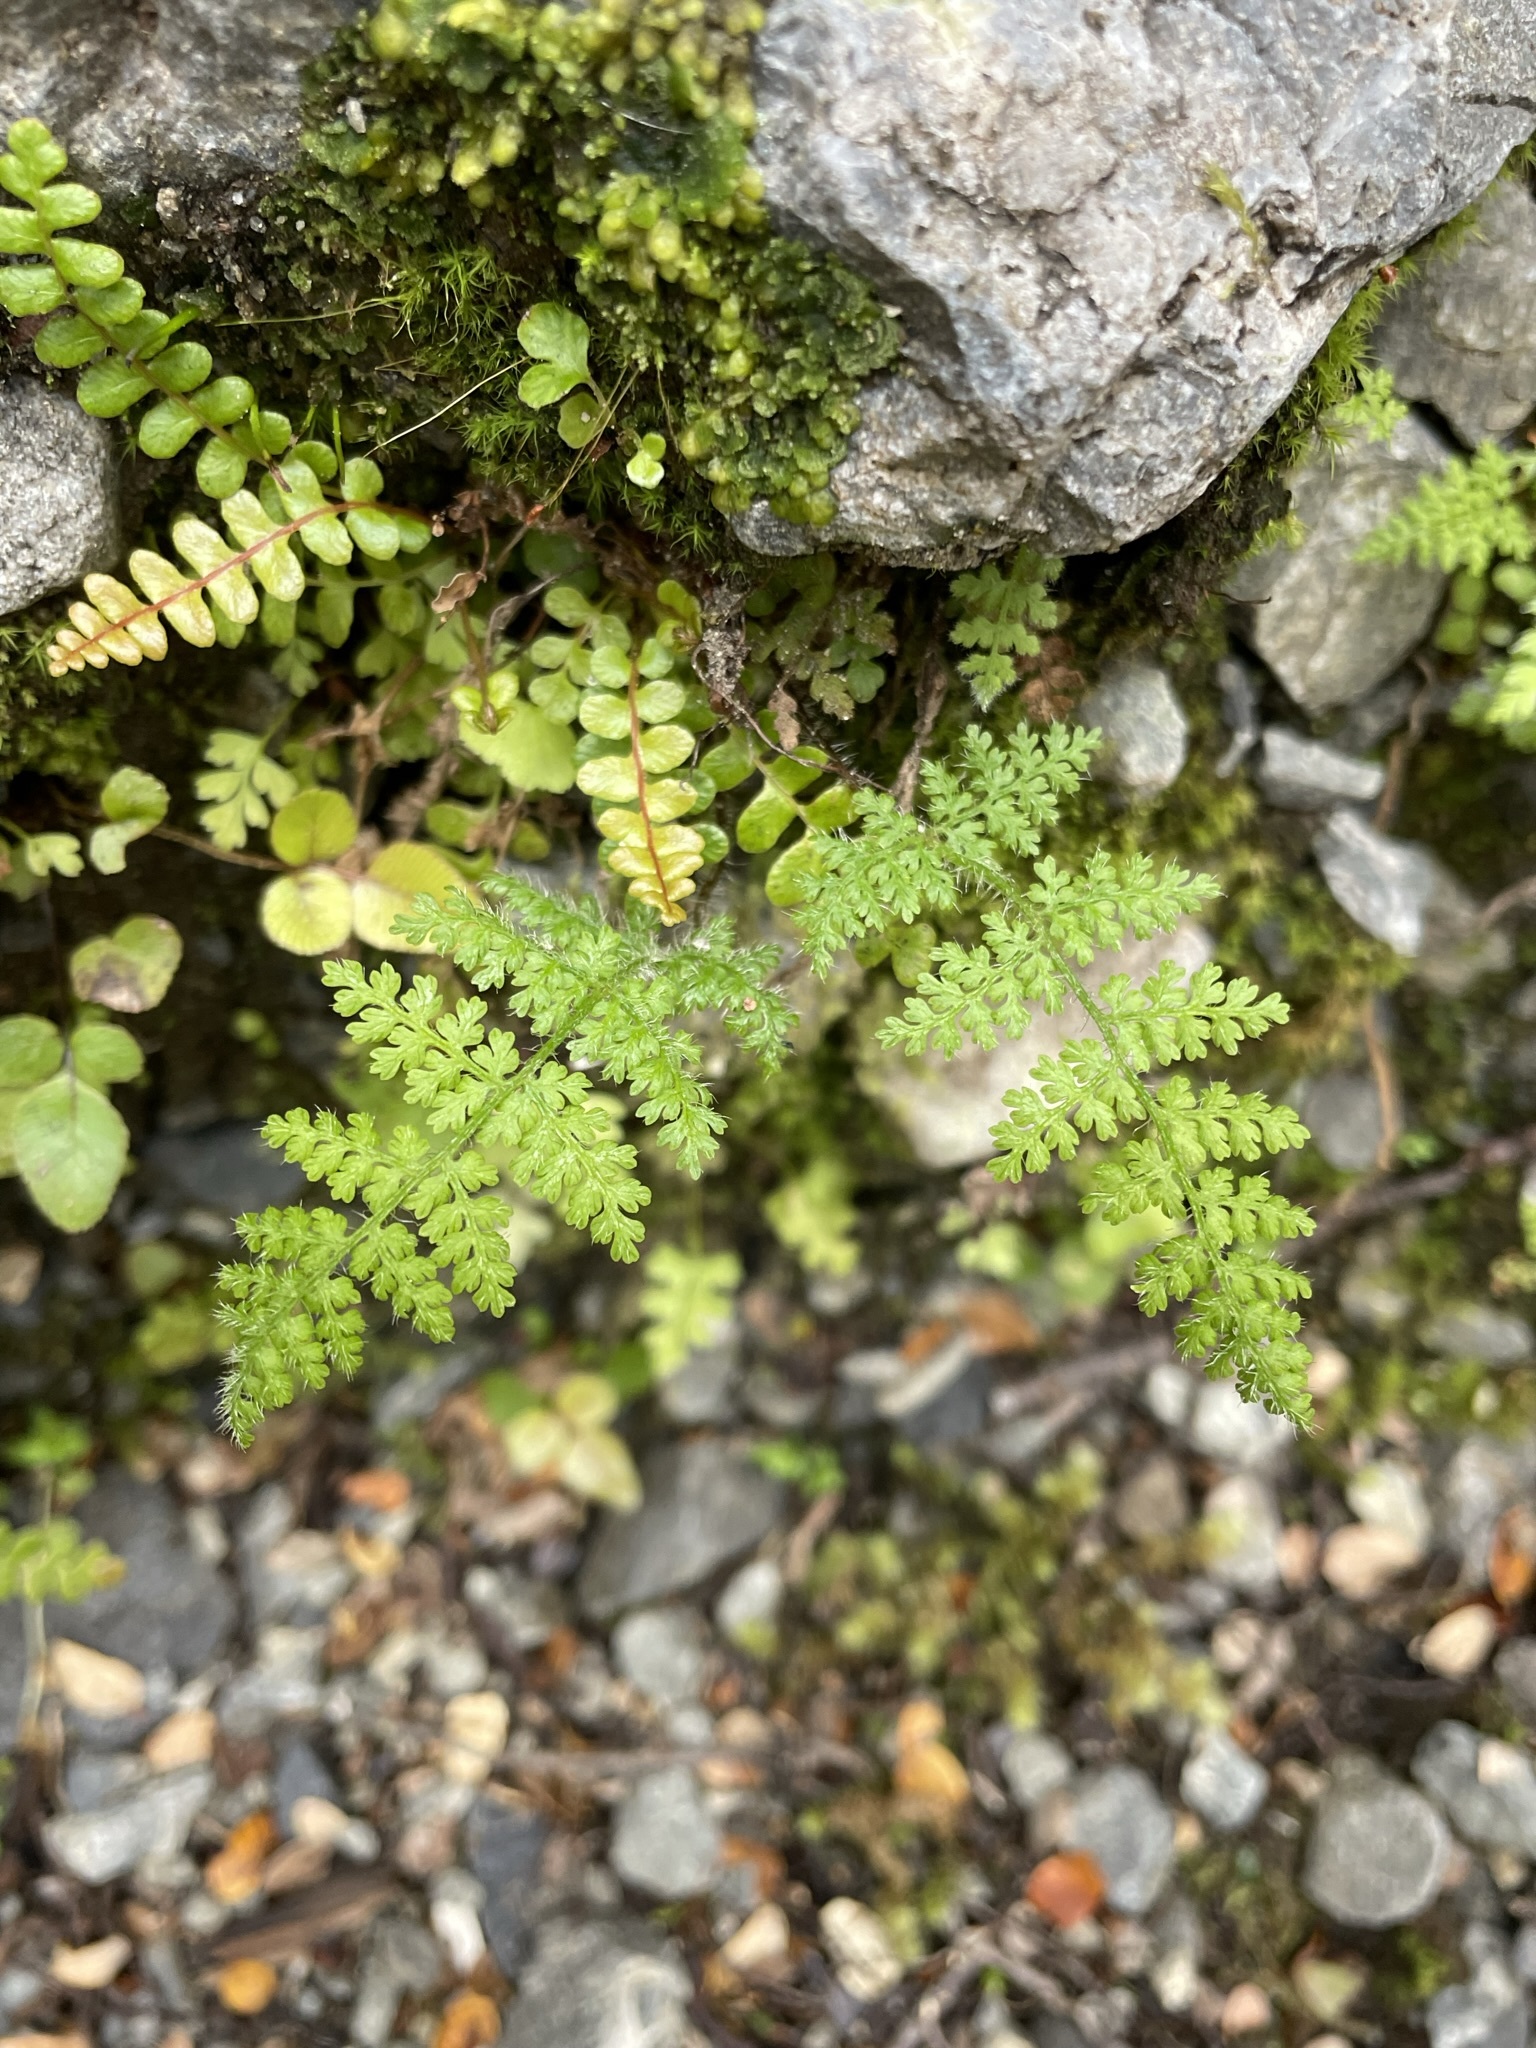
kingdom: Plantae
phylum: Tracheophyta
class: Polypodiopsida
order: Polypodiales
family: Dennstaedtiaceae
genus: Hypolepis
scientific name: Hypolepis millefolium
